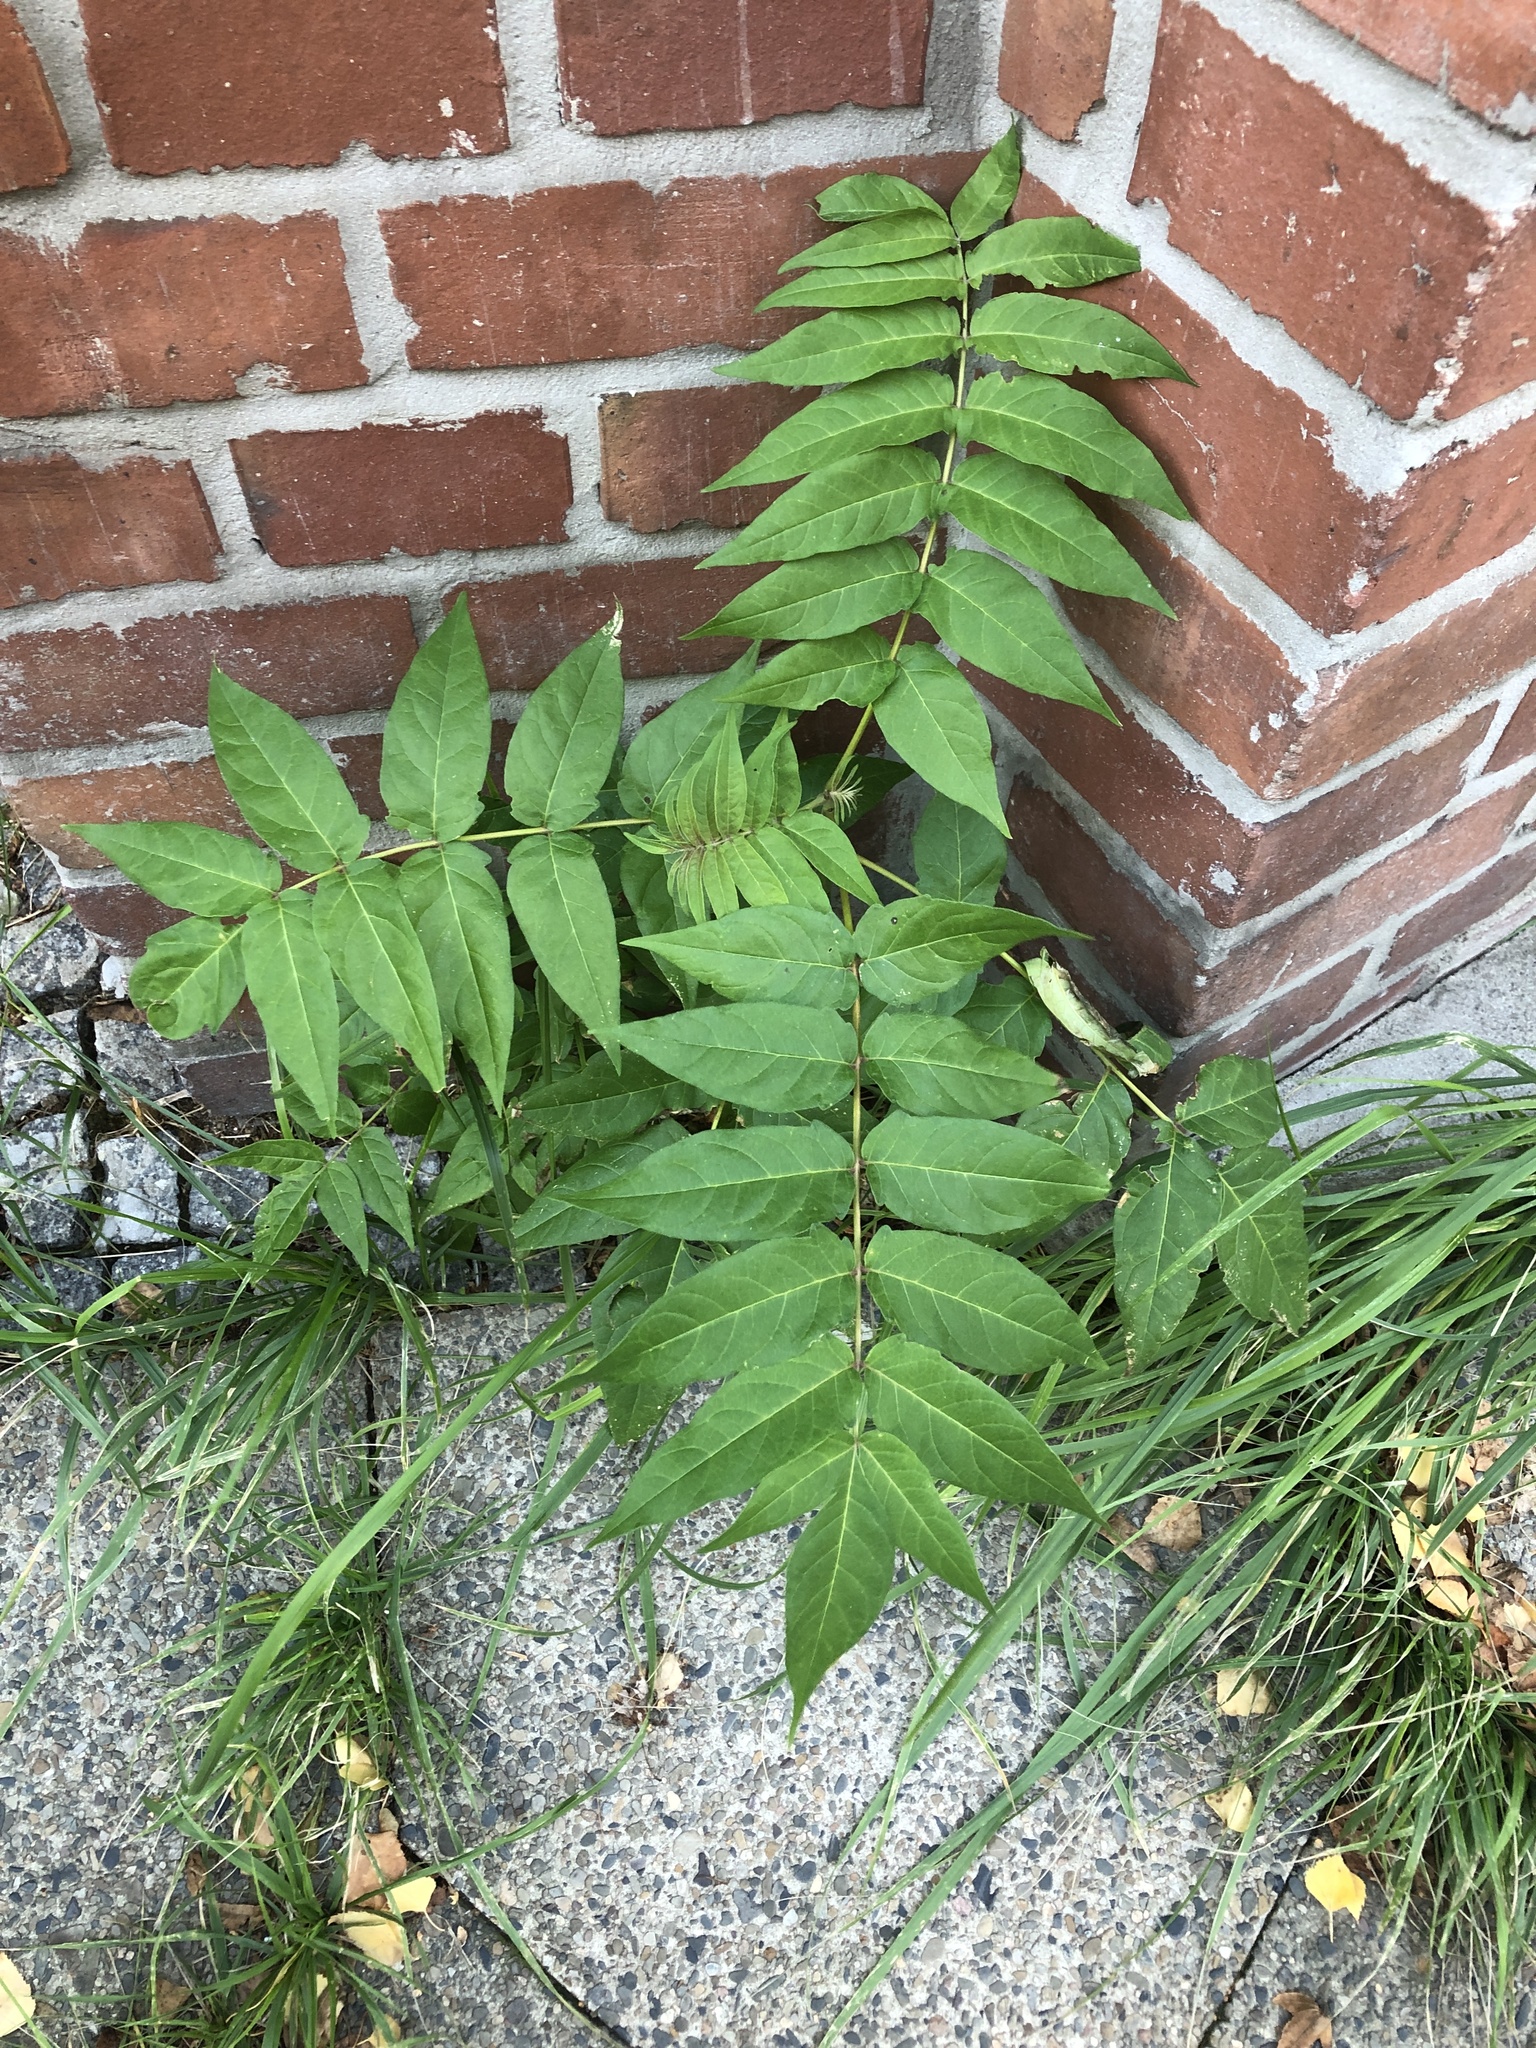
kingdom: Plantae
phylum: Tracheophyta
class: Magnoliopsida
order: Sapindales
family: Simaroubaceae
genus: Ailanthus
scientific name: Ailanthus altissima
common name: Tree-of-heaven
